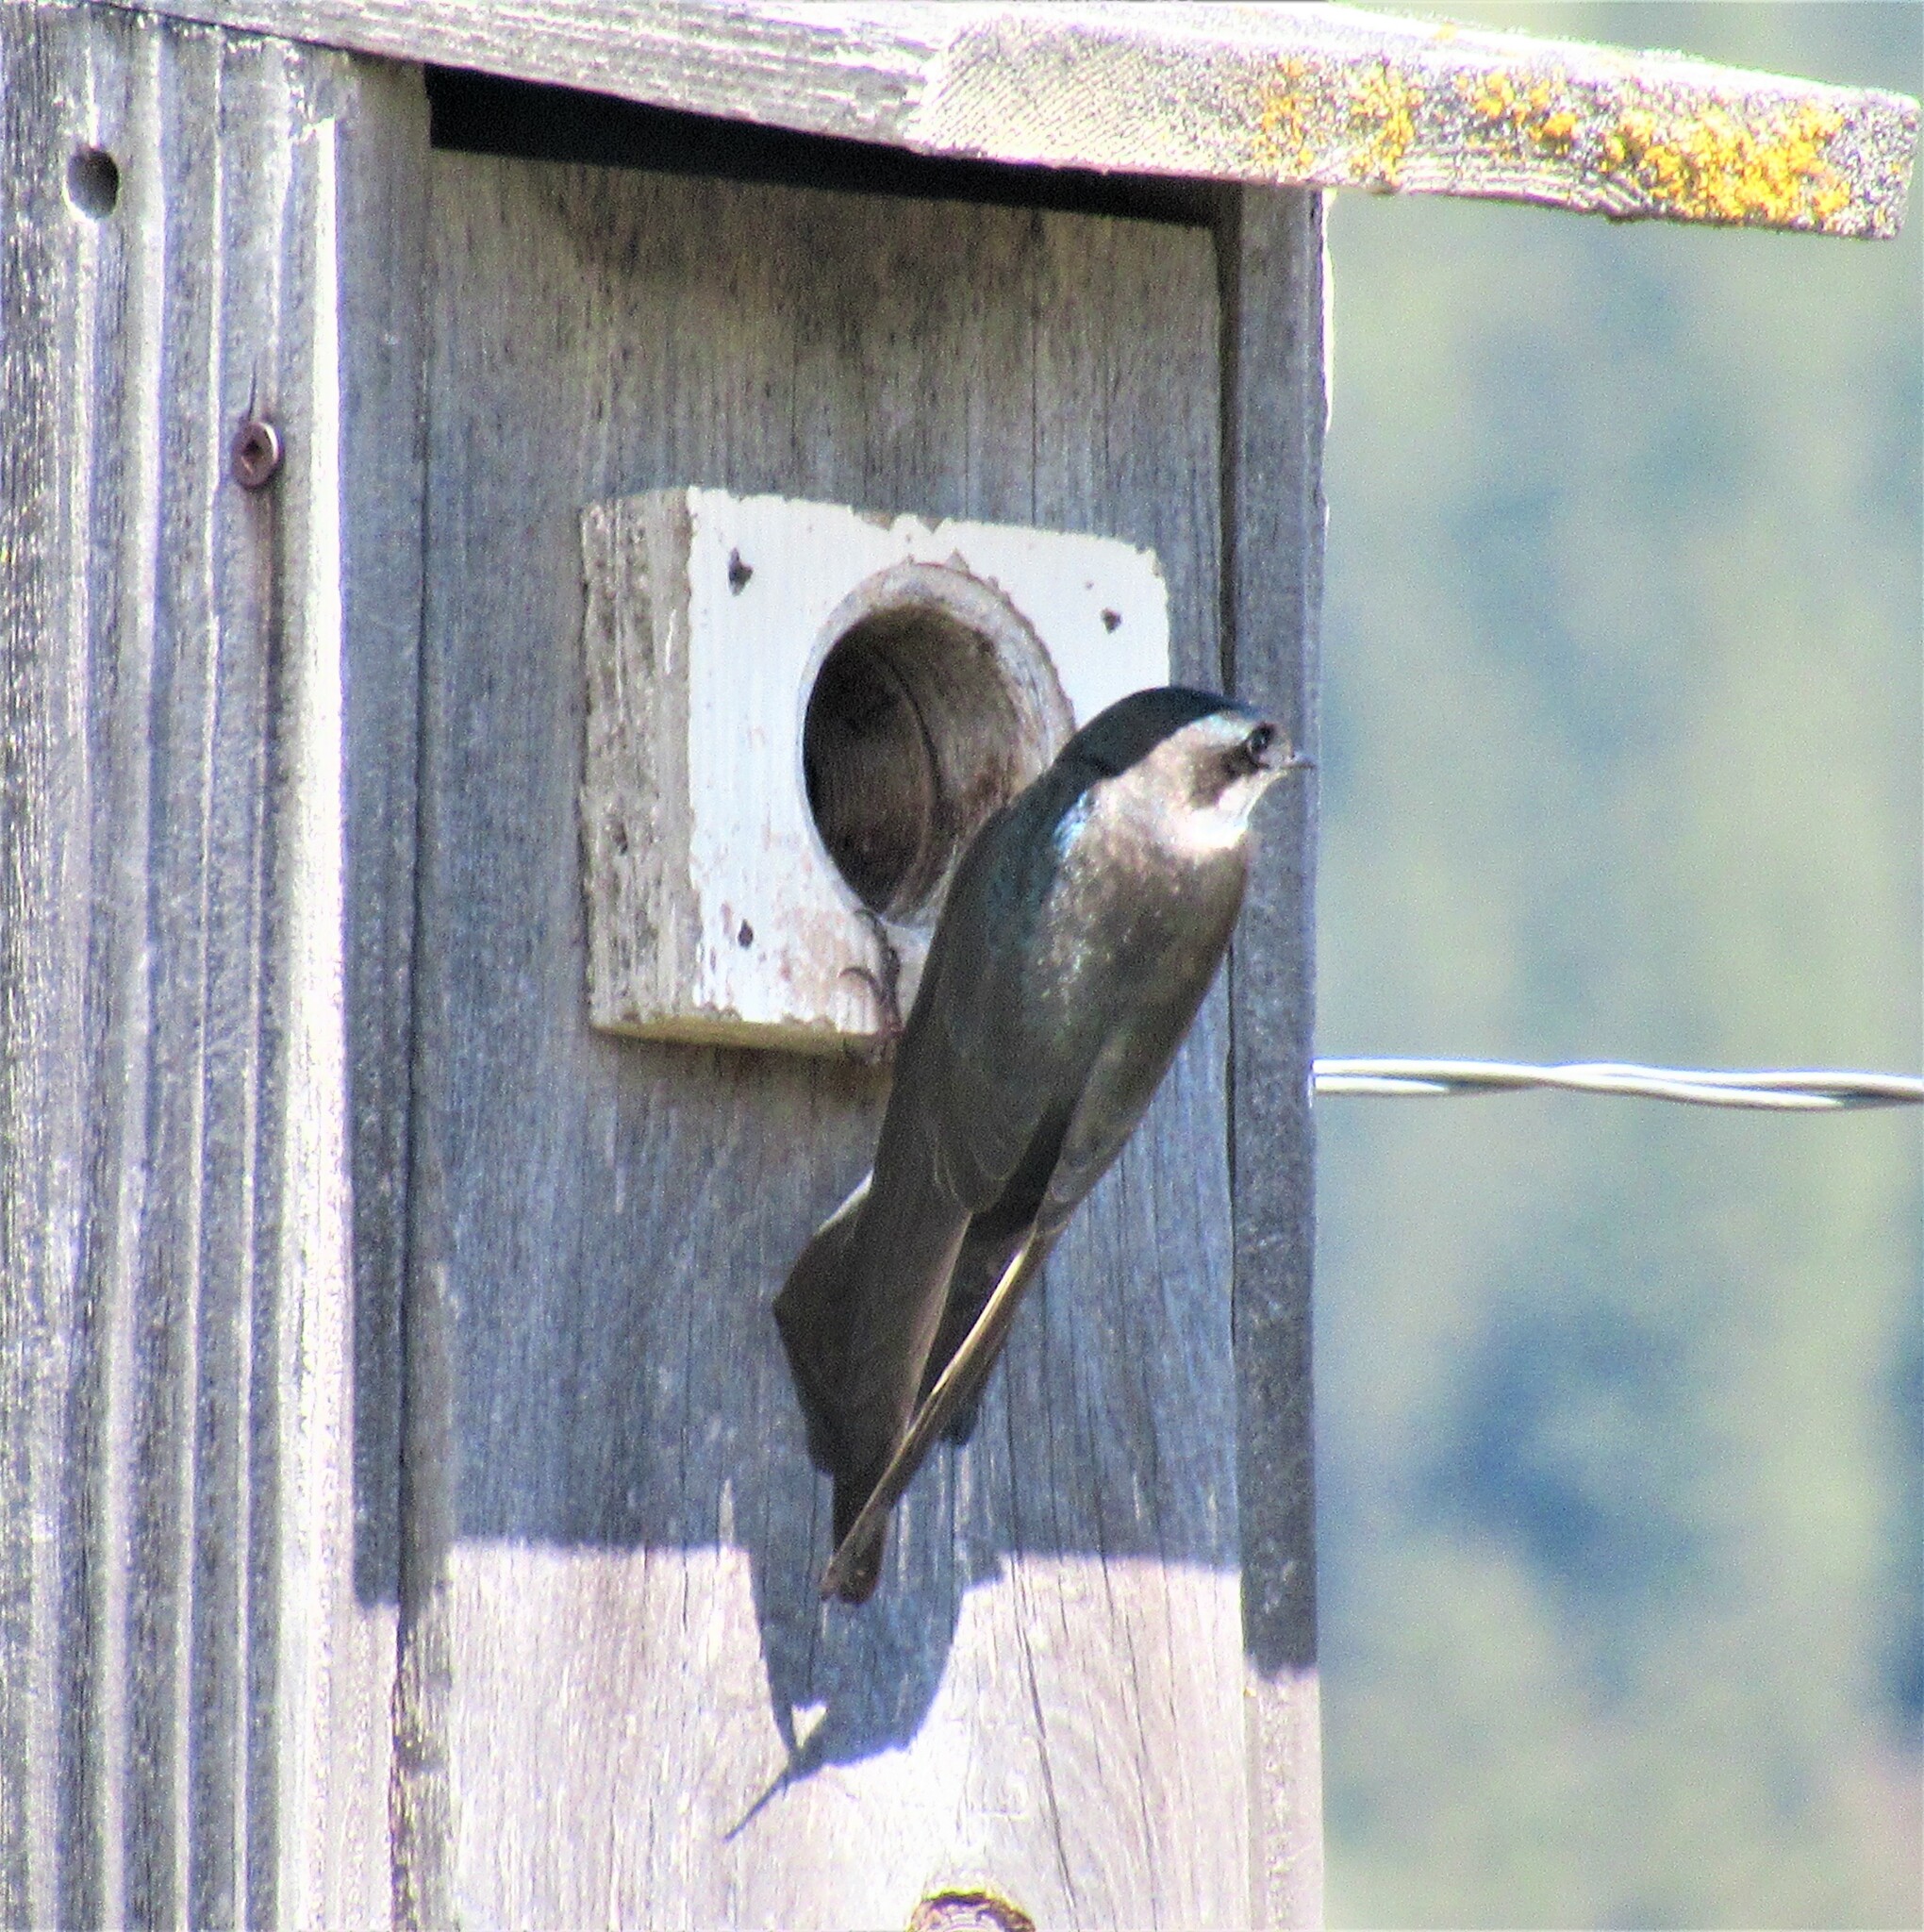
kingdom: Animalia
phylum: Chordata
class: Aves
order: Passeriformes
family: Hirundinidae
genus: Tachycineta
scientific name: Tachycineta bicolor
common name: Tree swallow
